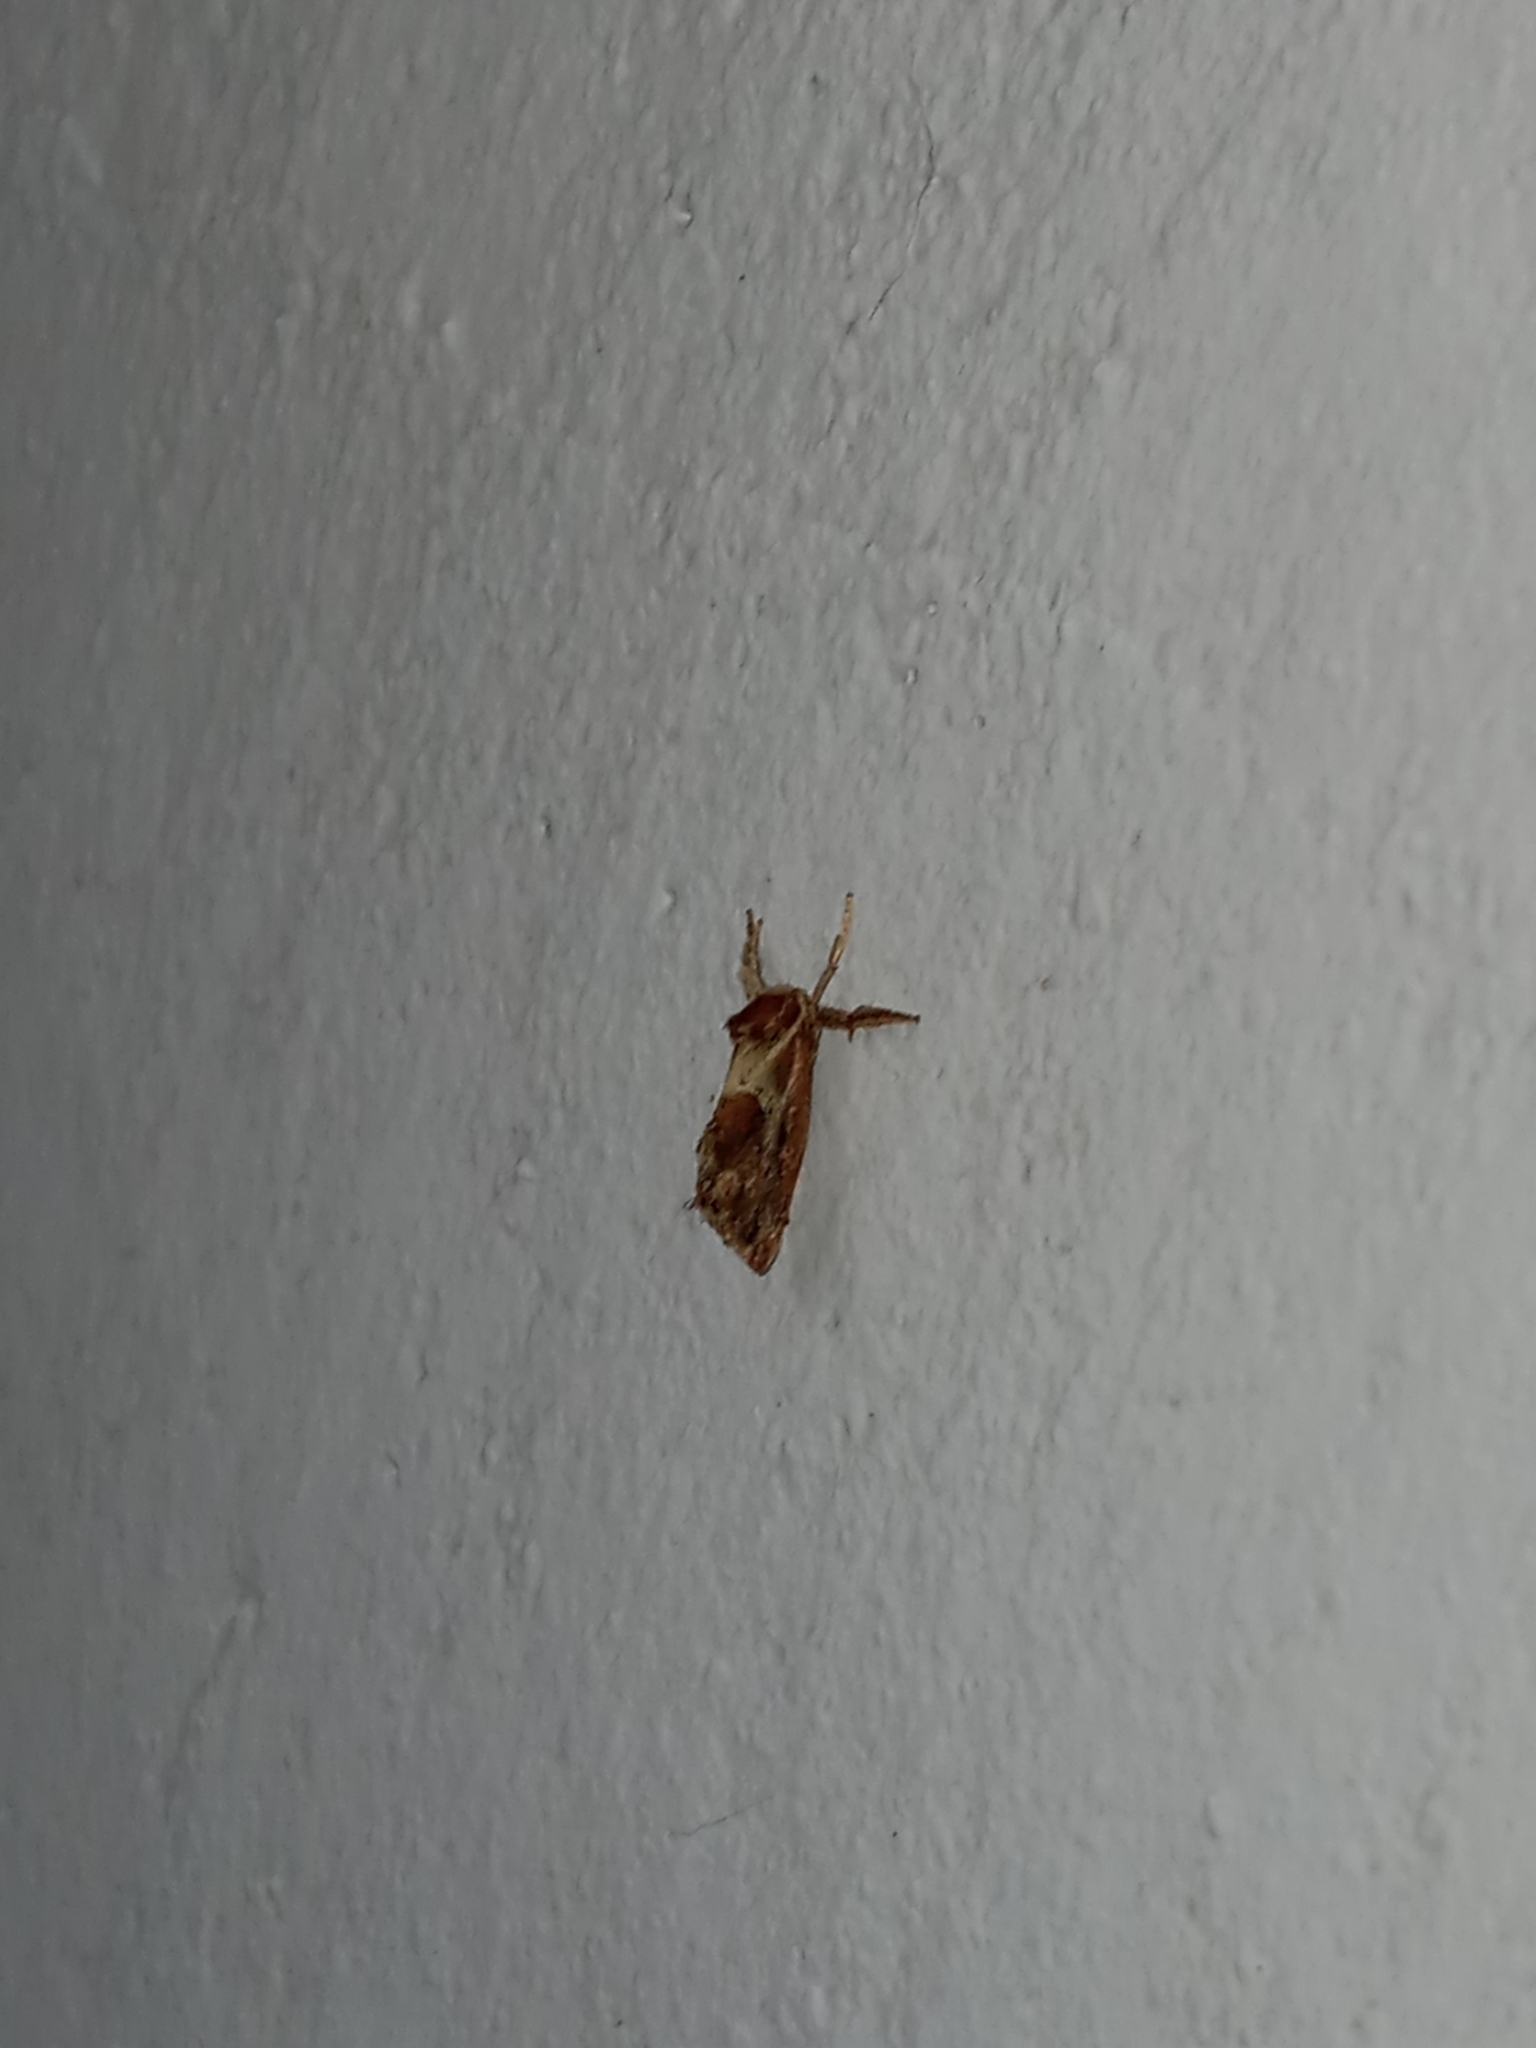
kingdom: Animalia
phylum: Arthropoda
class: Insecta
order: Lepidoptera
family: Limacodidae
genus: Adoneta
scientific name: Adoneta spinuloides
